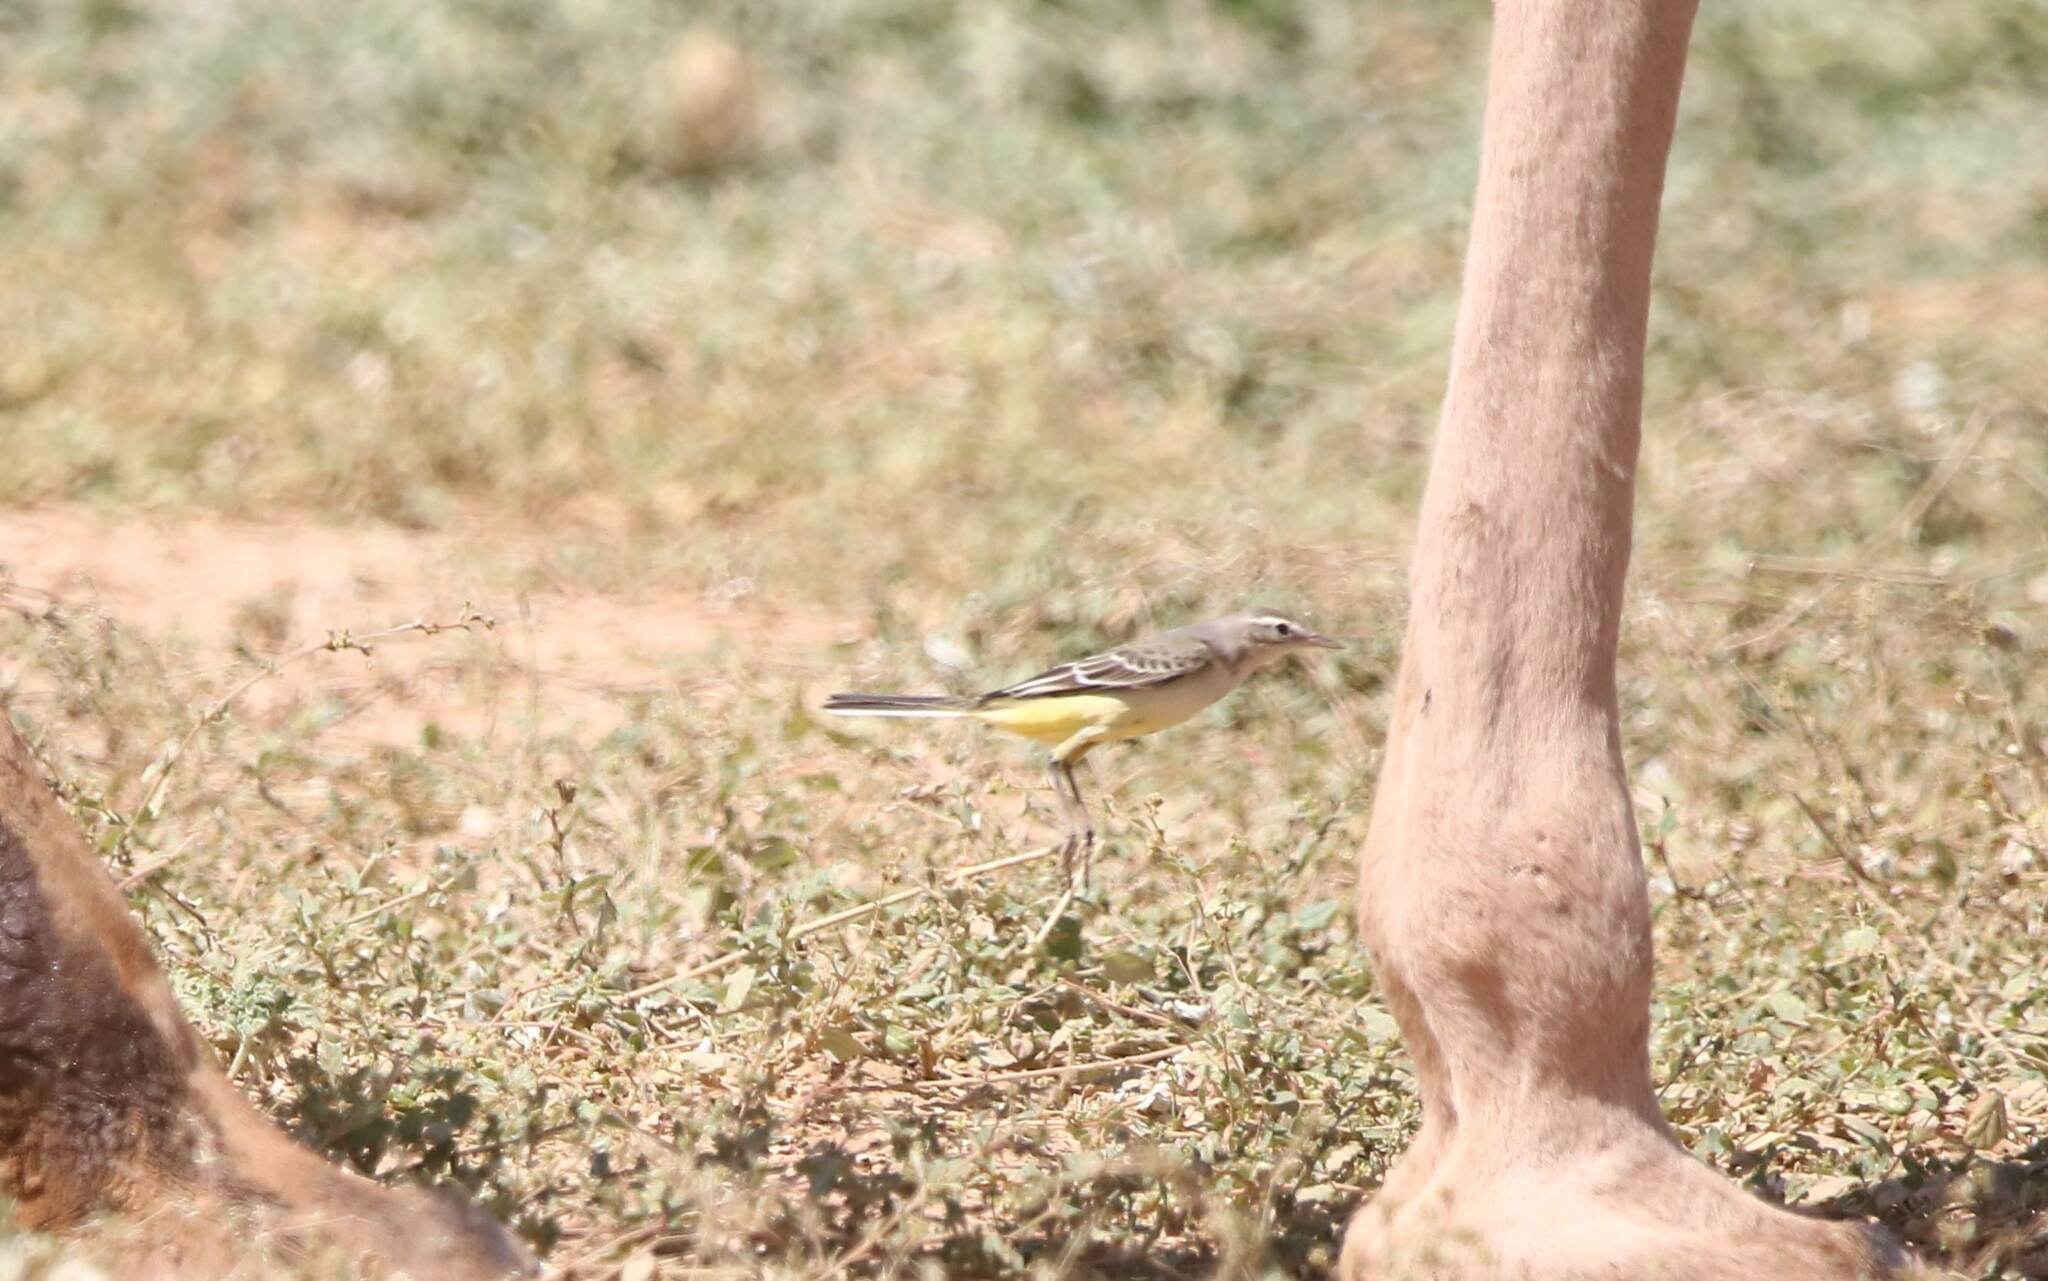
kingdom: Animalia
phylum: Chordata
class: Aves
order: Passeriformes
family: Motacillidae
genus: Motacilla
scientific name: Motacilla flava
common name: Western yellow wagtail
